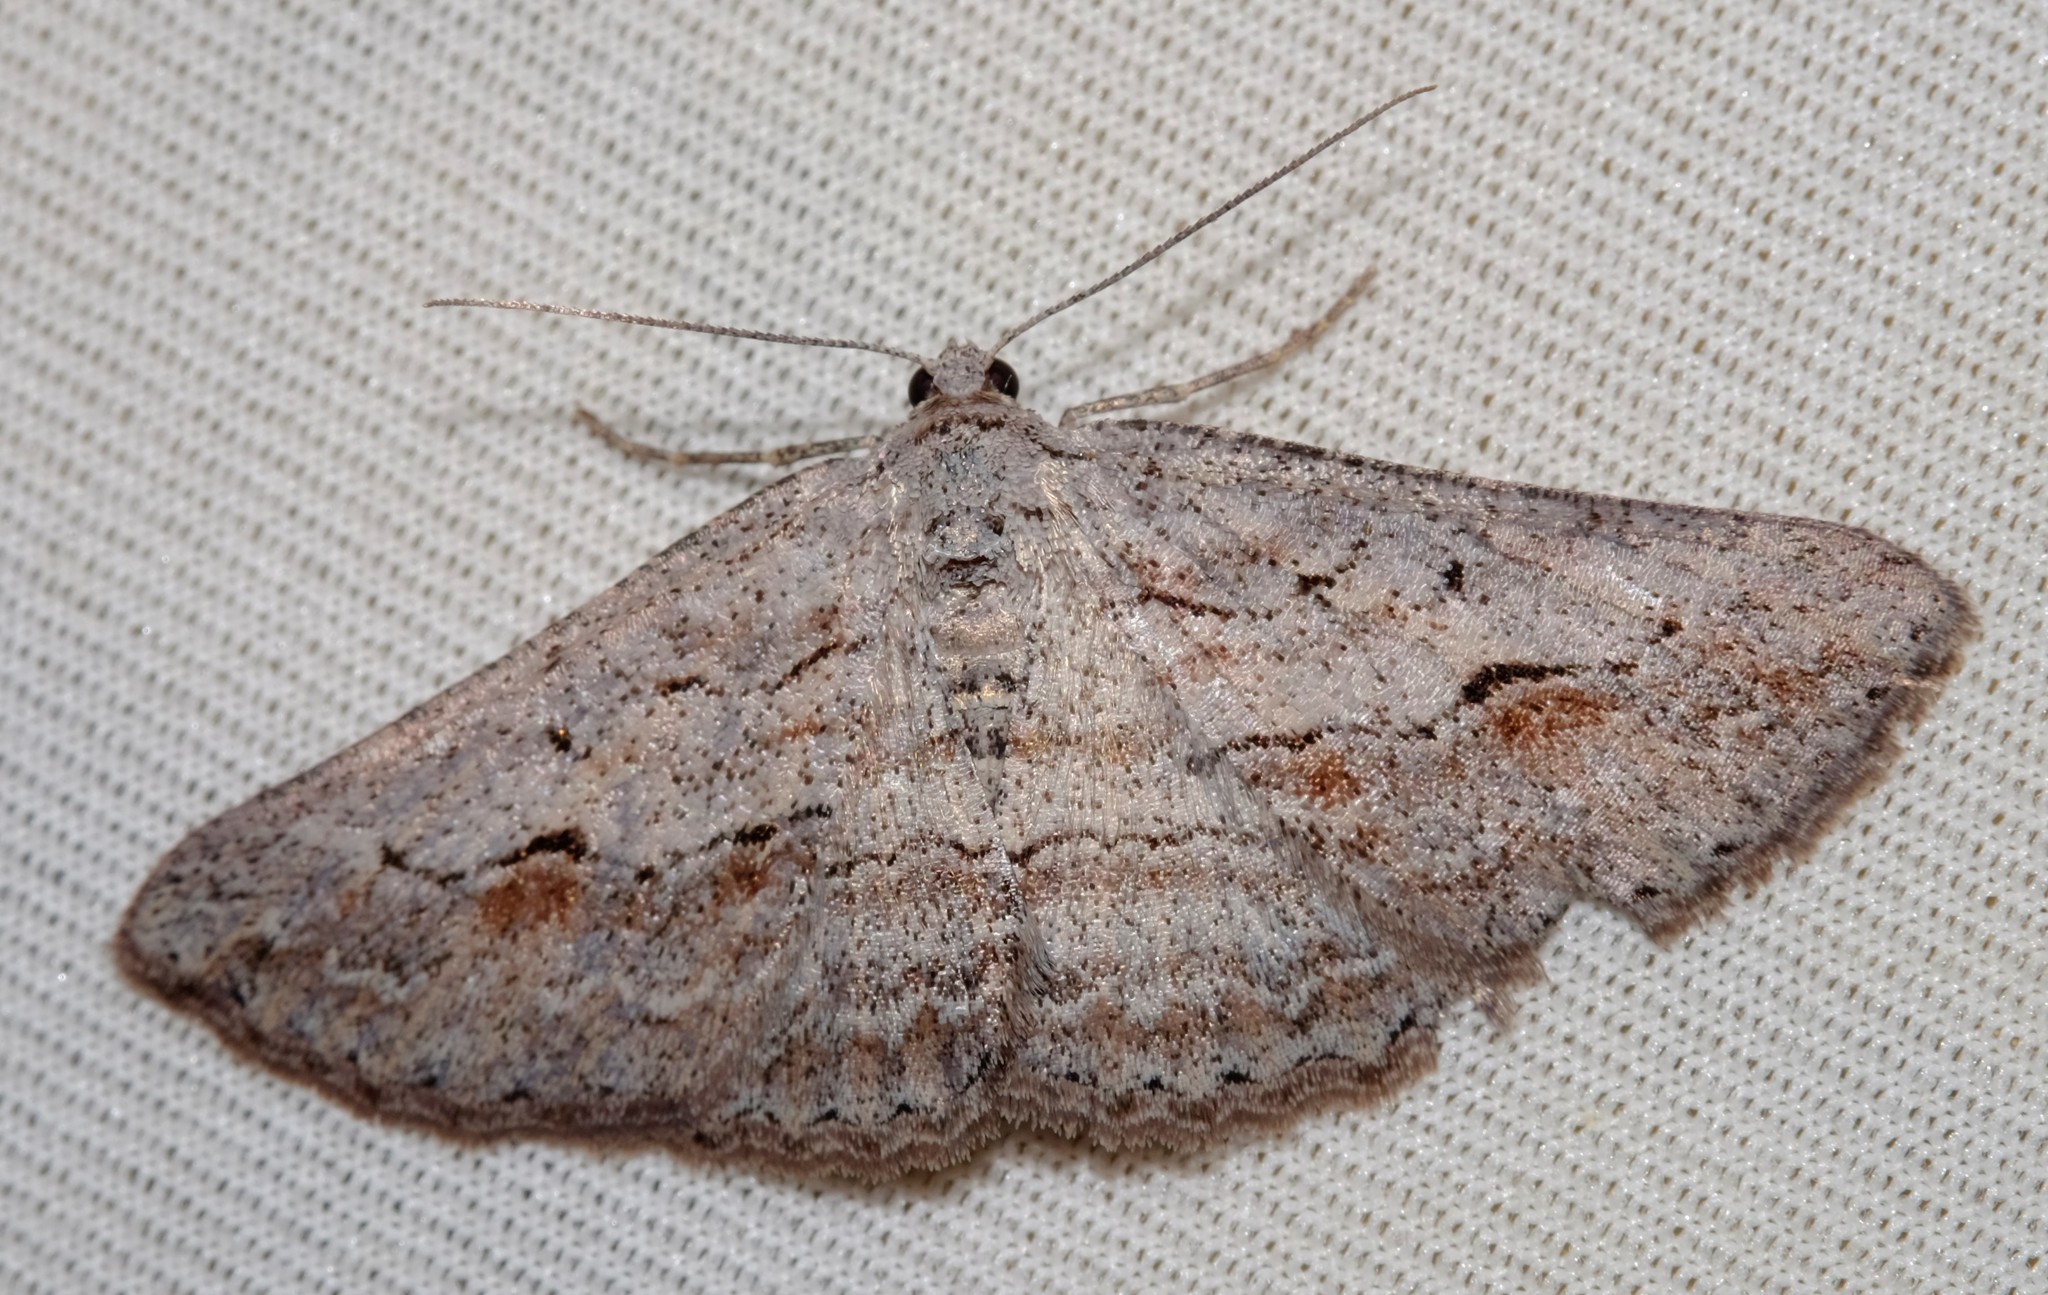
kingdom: Animalia
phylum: Arthropoda
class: Insecta
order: Lepidoptera
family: Geometridae
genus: Syneora
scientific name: Syneora mundifera
